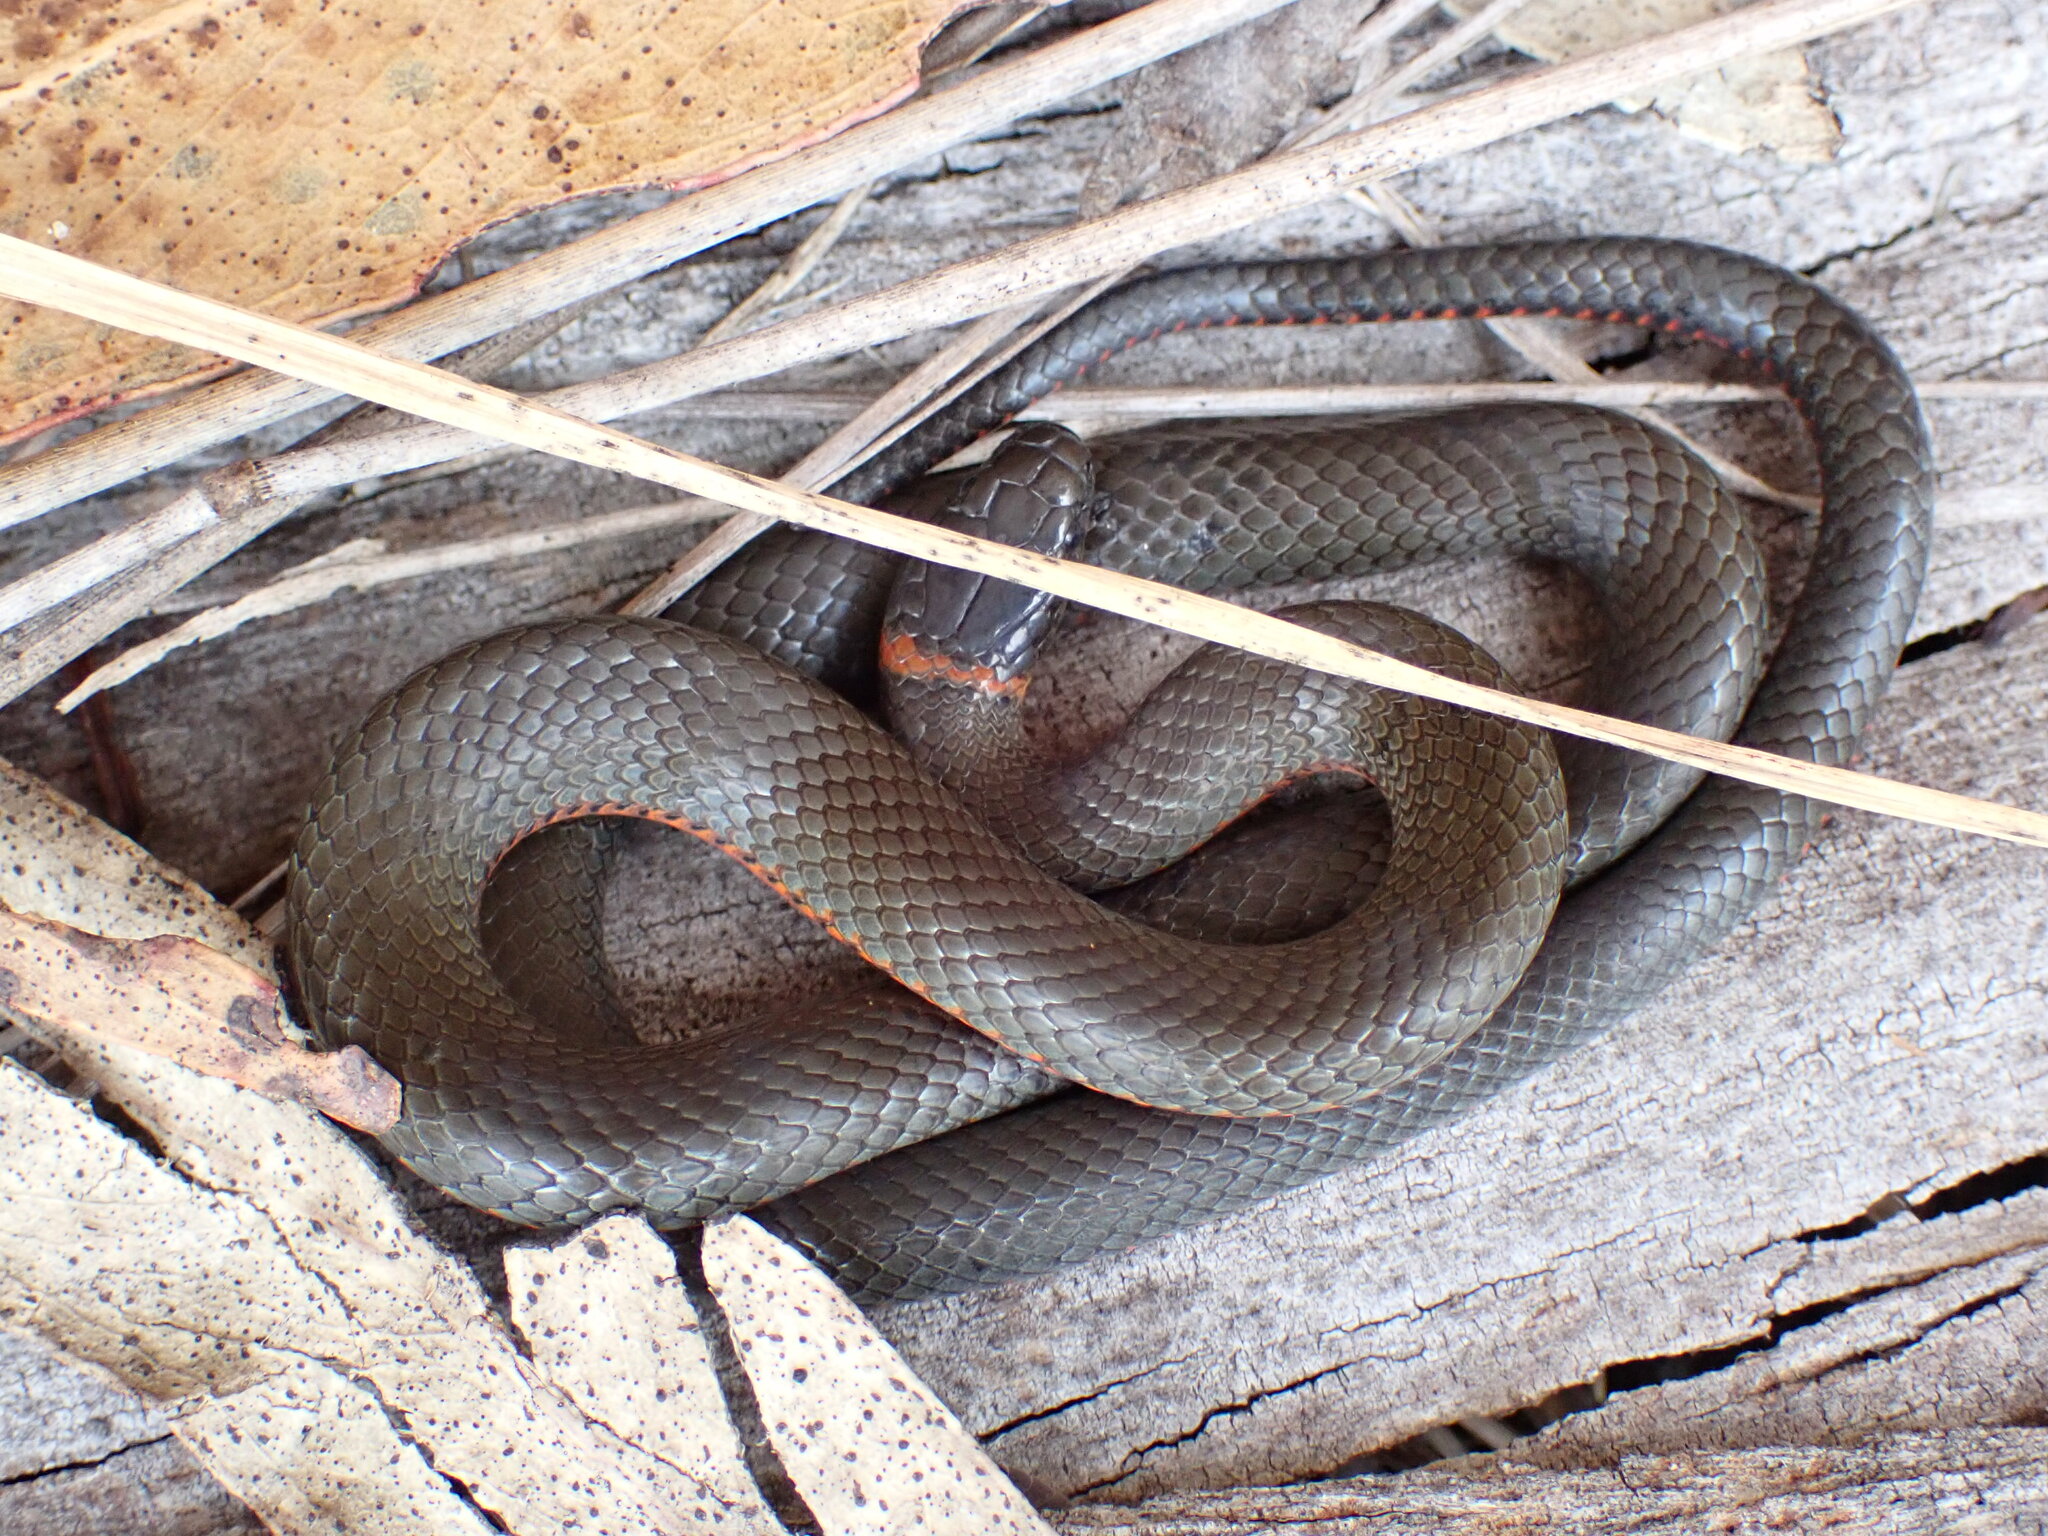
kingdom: Animalia
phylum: Chordata
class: Squamata
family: Colubridae
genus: Diadophis
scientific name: Diadophis punctatus
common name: Ringneck snake
